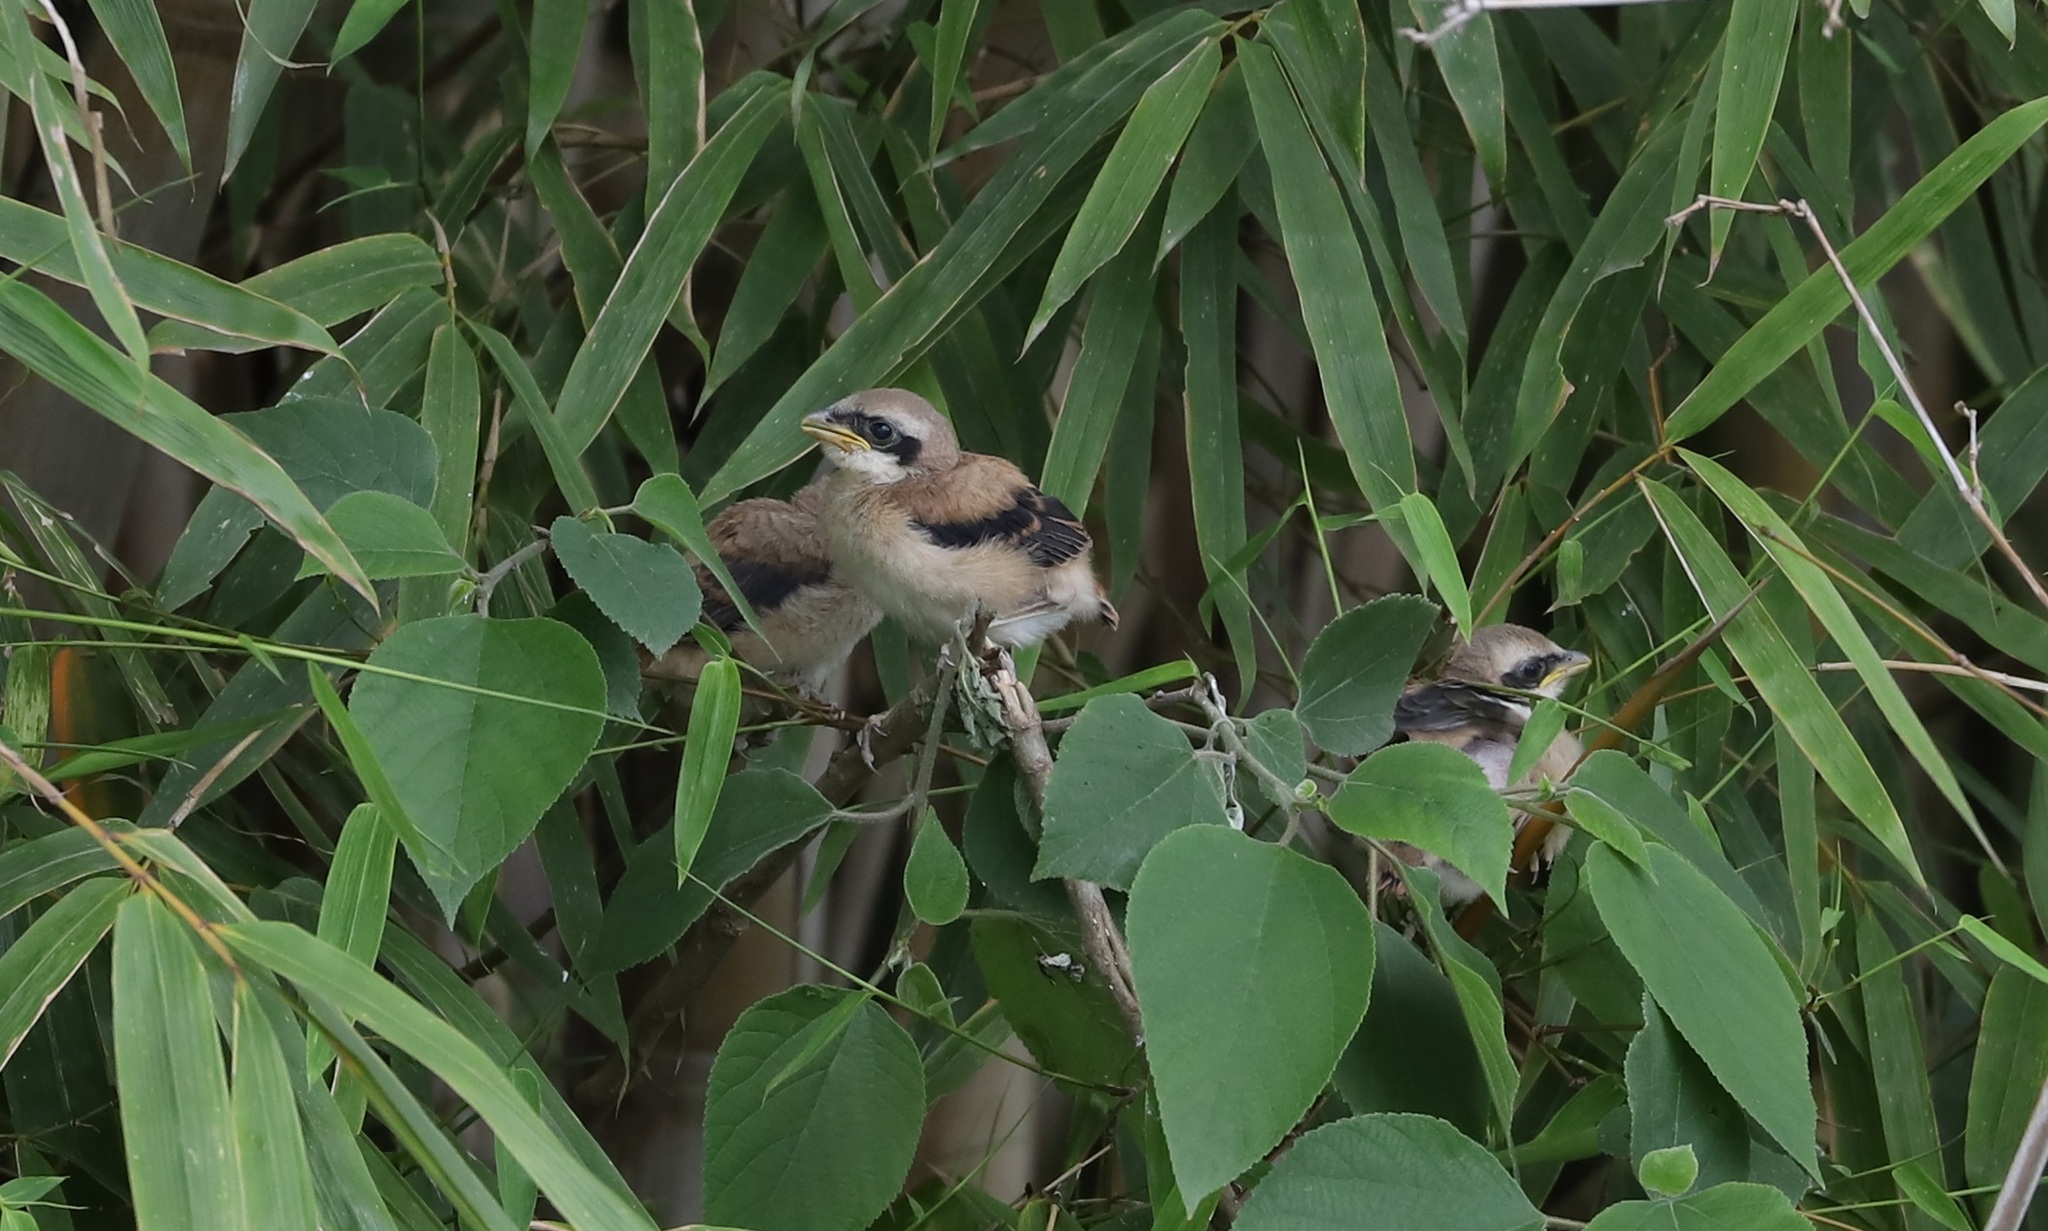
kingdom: Animalia
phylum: Chordata
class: Aves
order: Passeriformes
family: Laniidae
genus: Lanius
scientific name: Lanius schach
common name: Long-tailed shrike
